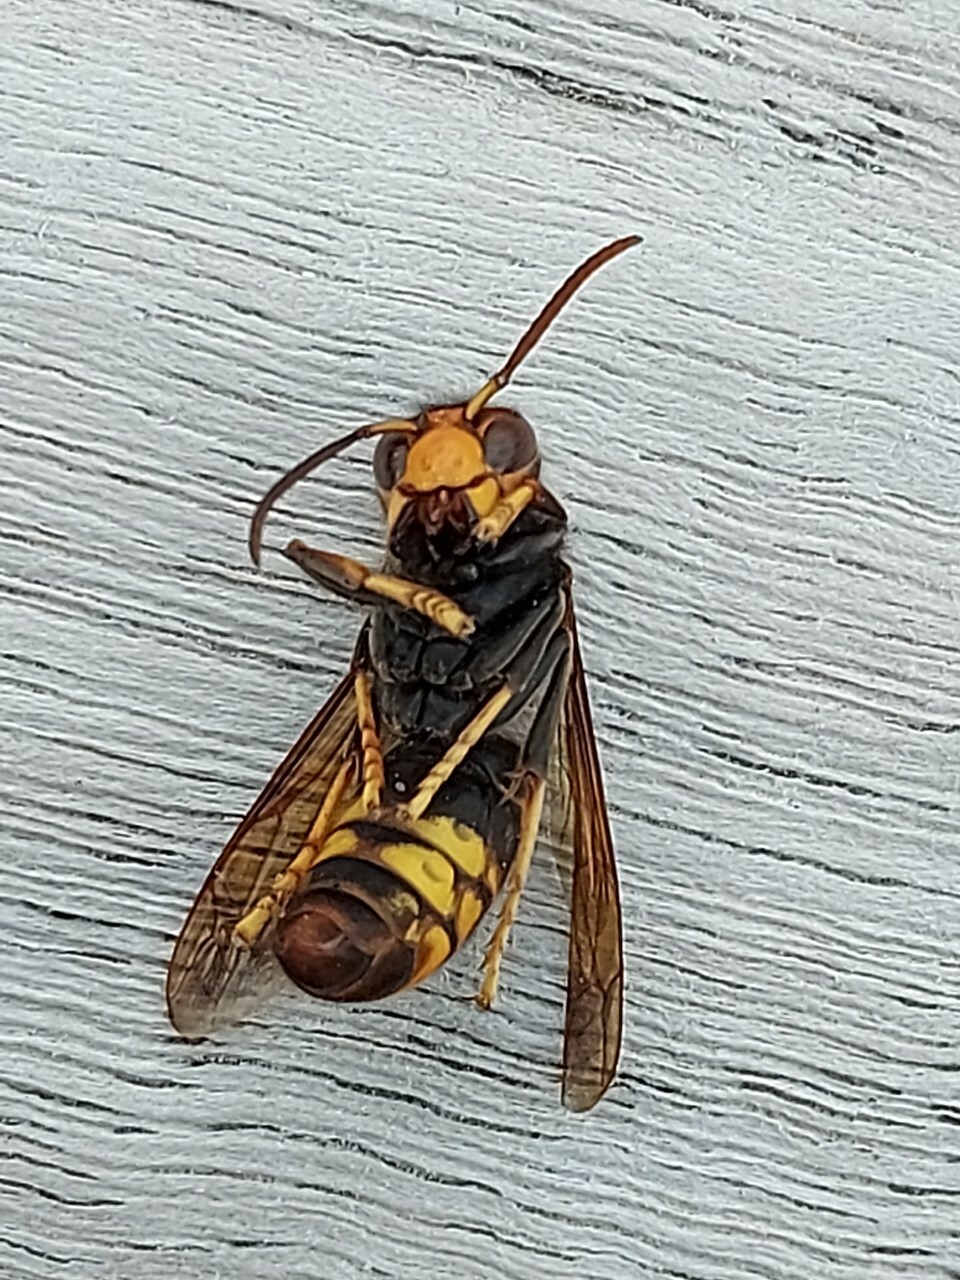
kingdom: Animalia
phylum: Arthropoda
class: Insecta
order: Hymenoptera
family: Vespidae
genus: Vespa
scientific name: Vespa velutina
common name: Asian hornet
